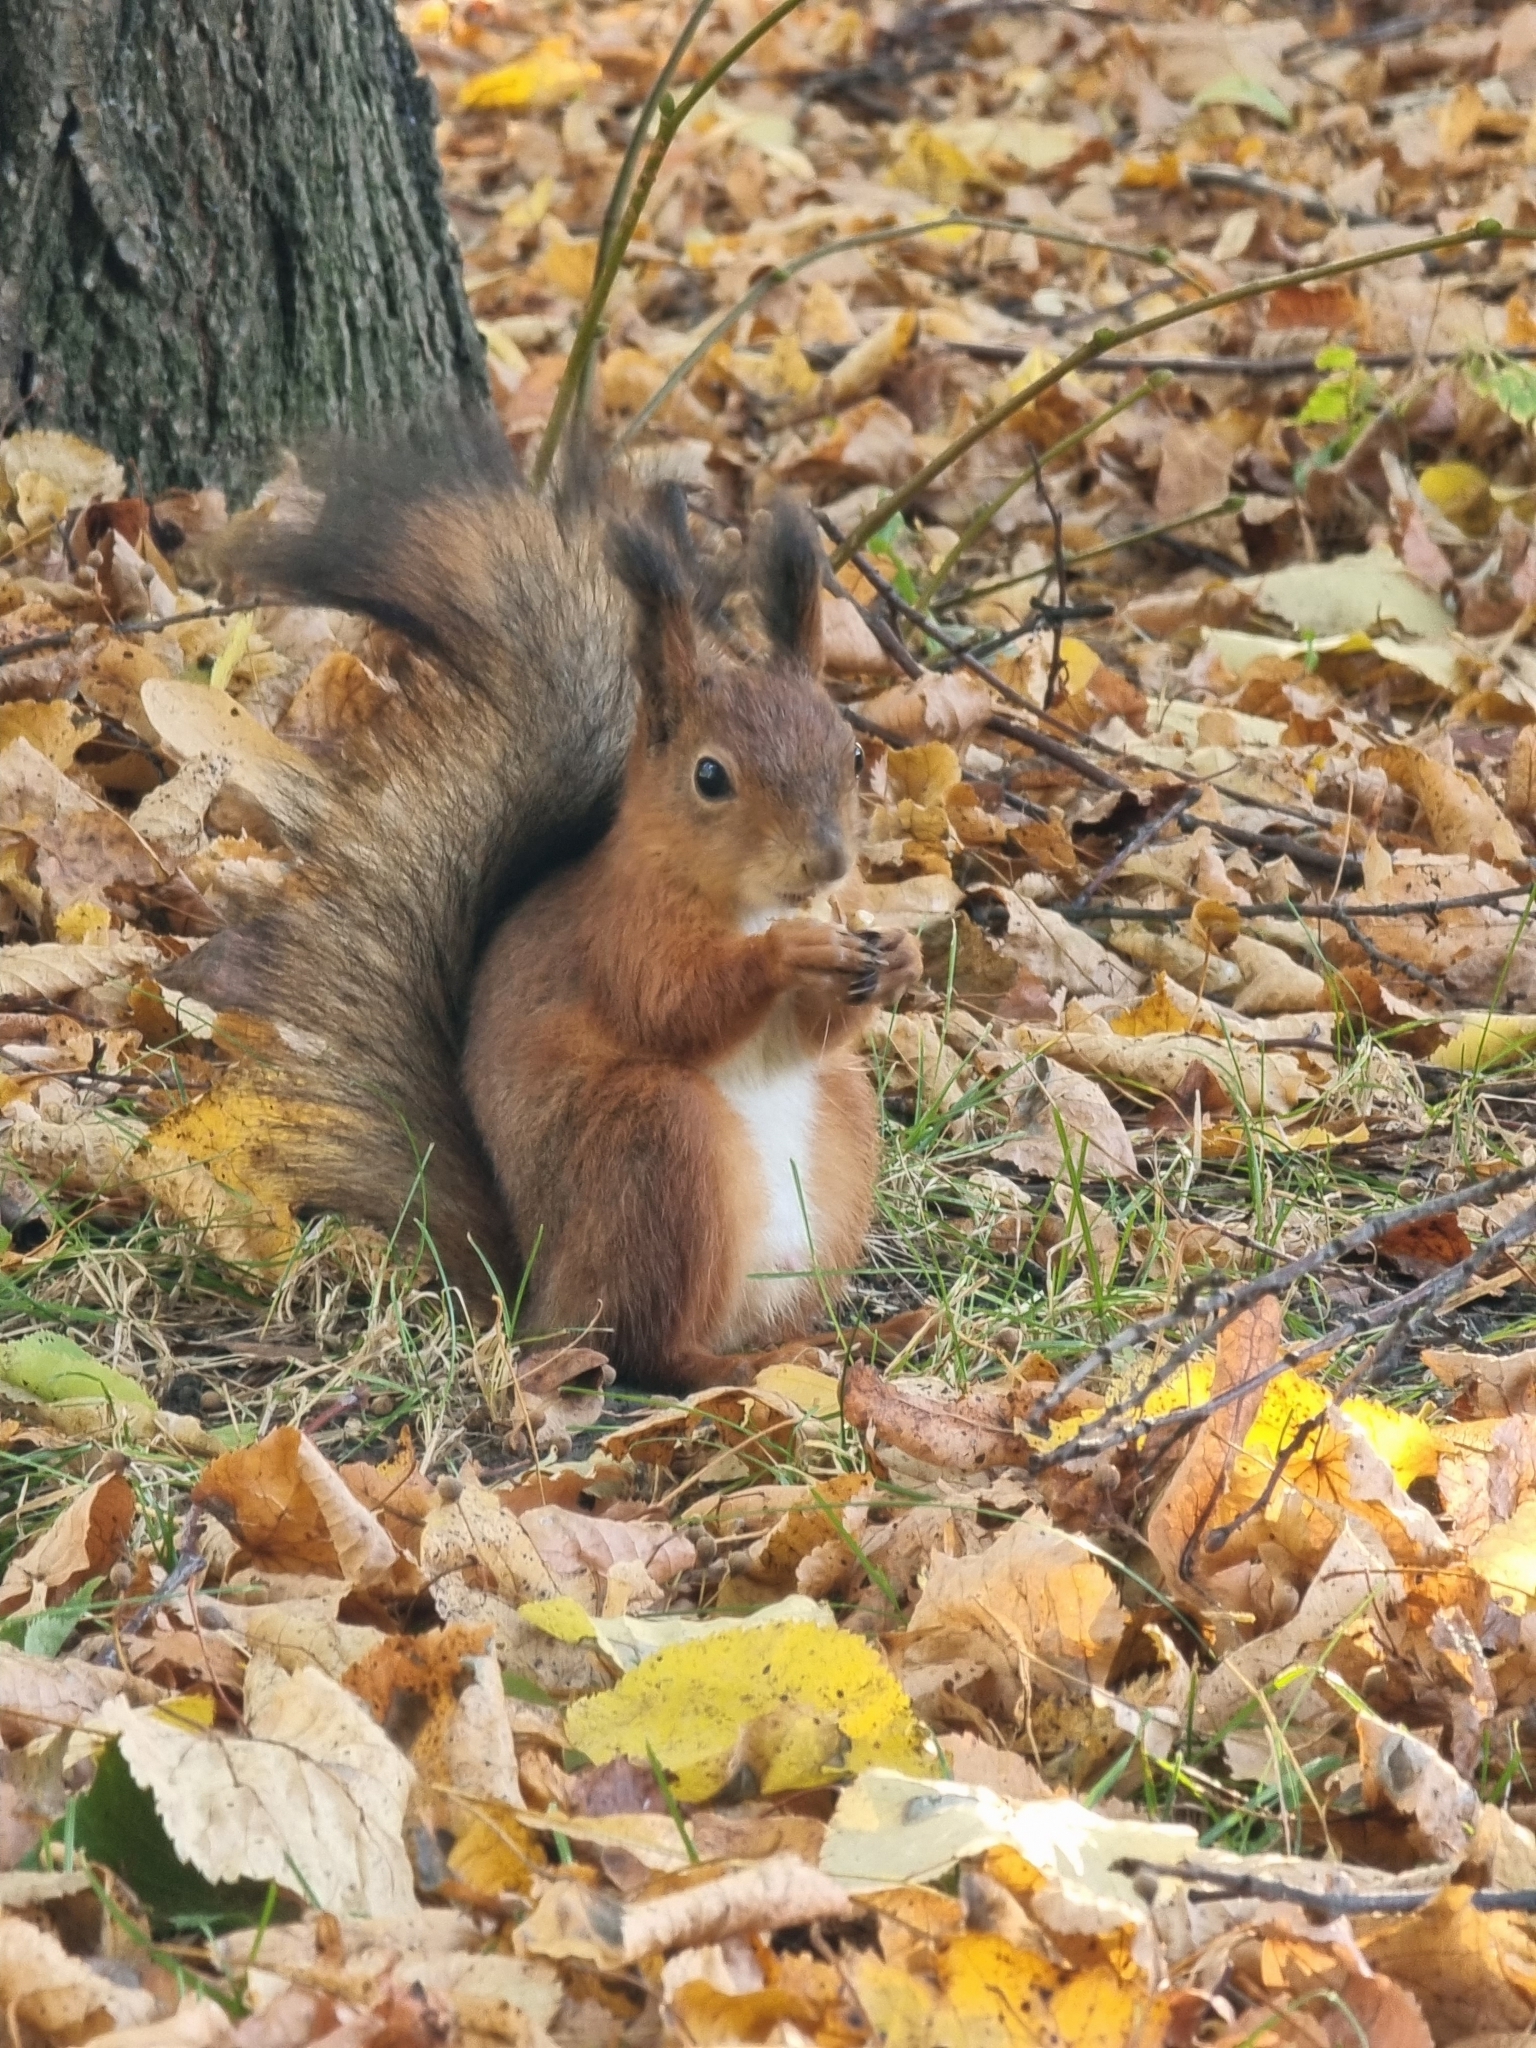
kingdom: Animalia
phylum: Chordata
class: Mammalia
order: Rodentia
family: Sciuridae
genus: Sciurus
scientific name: Sciurus vulgaris
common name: Eurasian red squirrel
